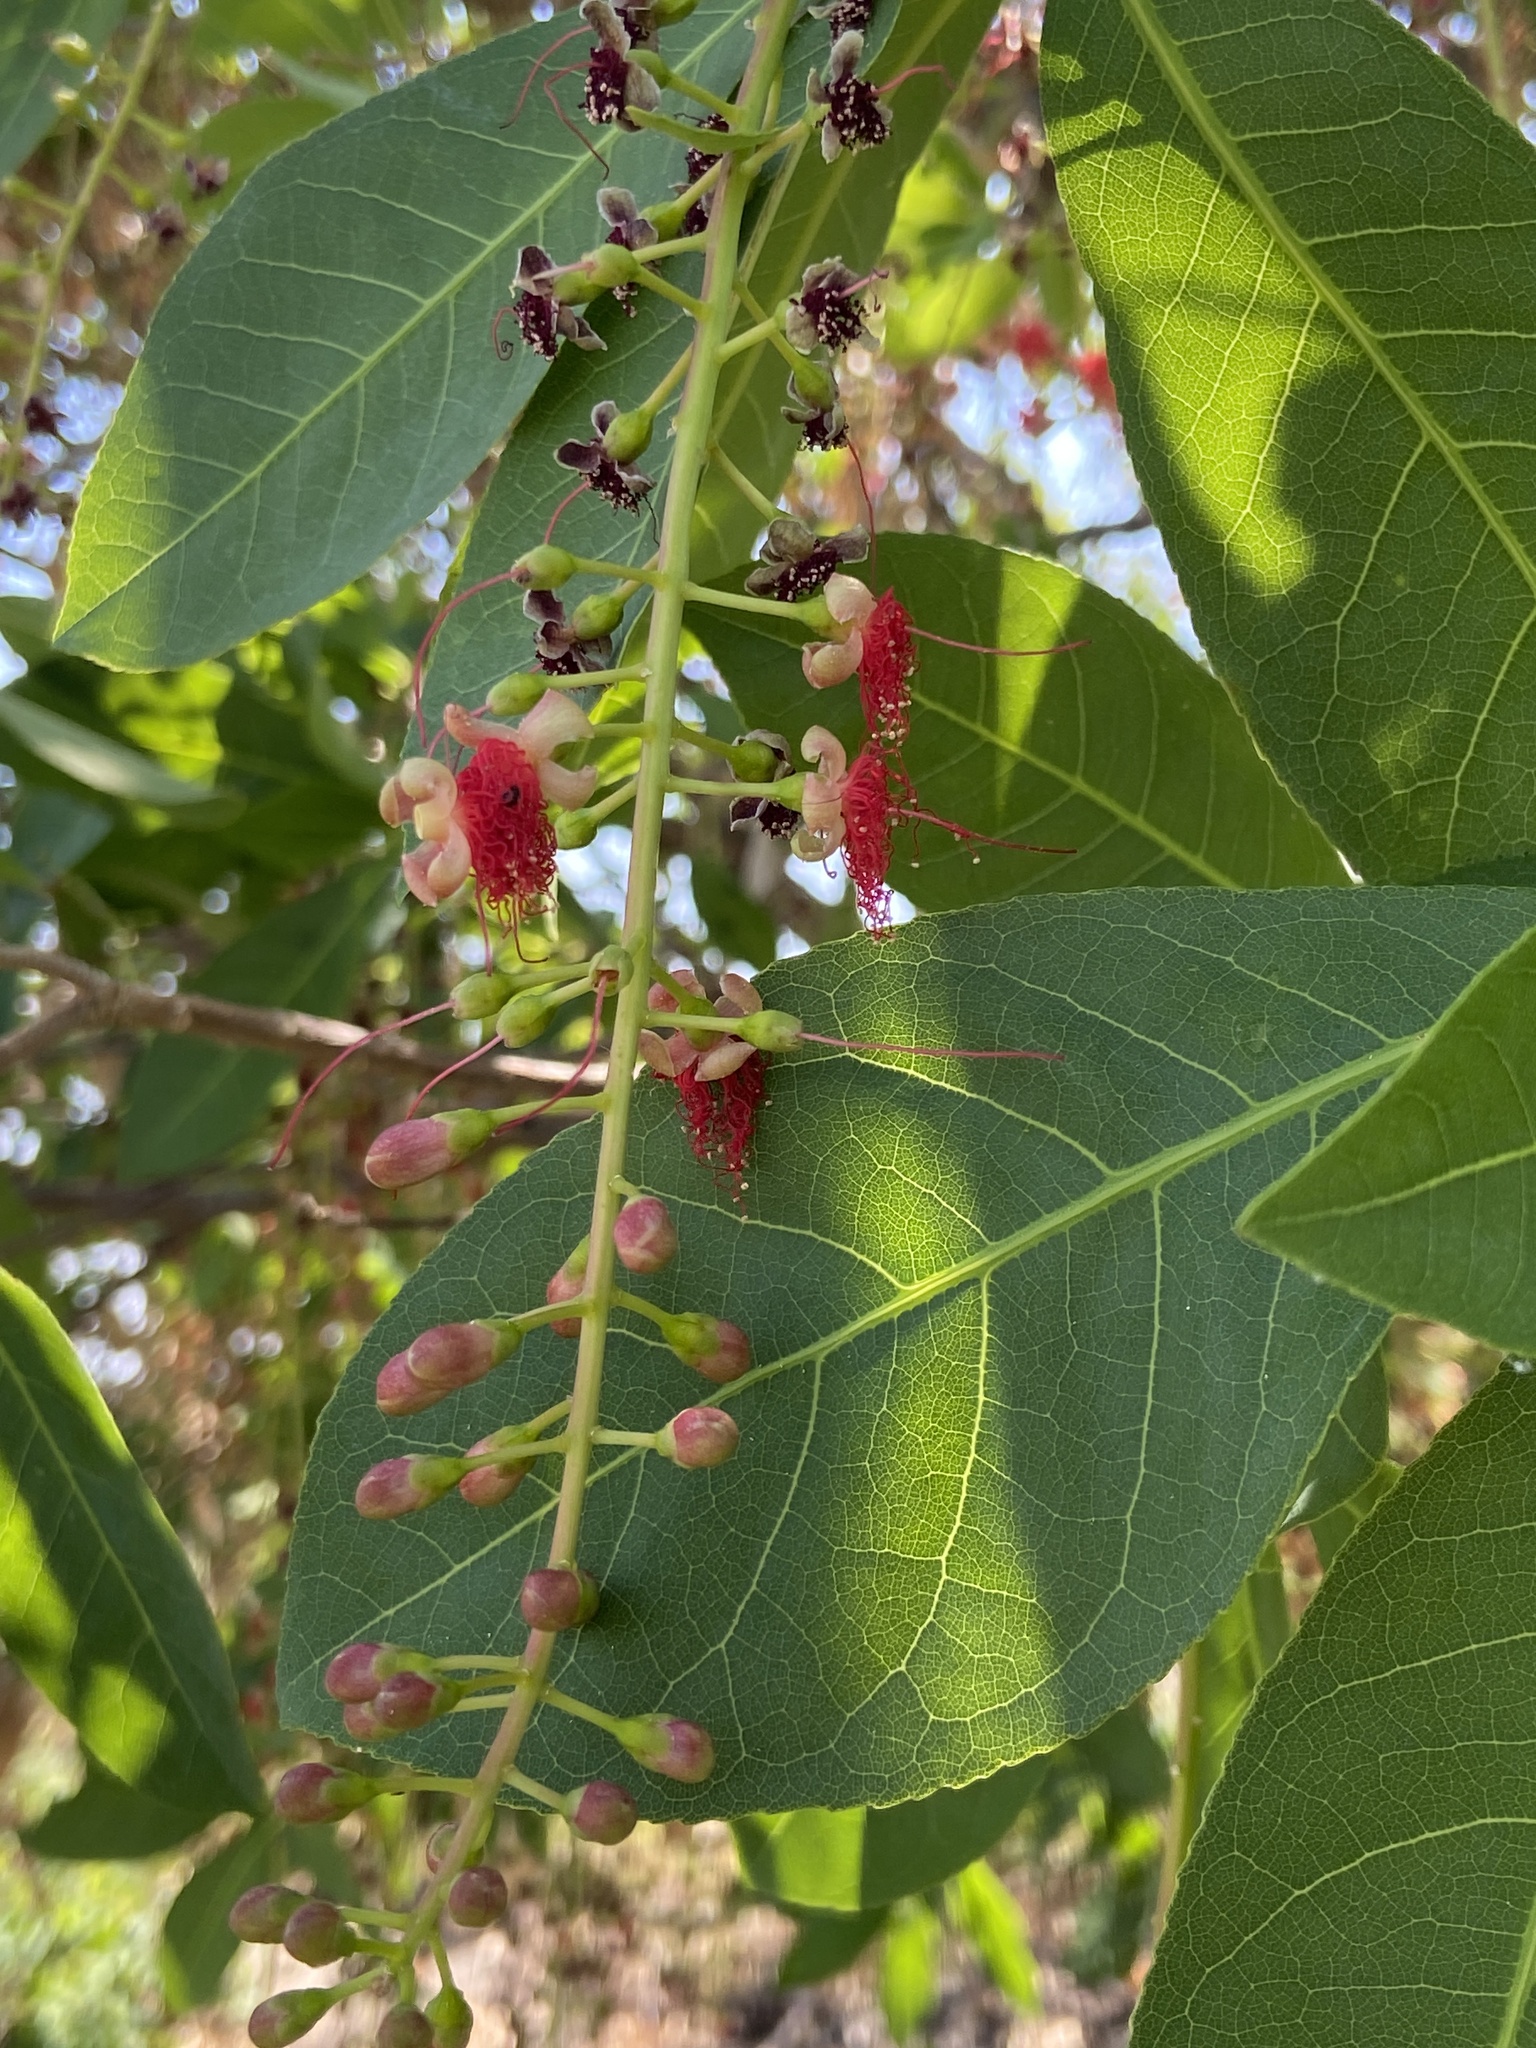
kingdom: Plantae
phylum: Tracheophyta
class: Magnoliopsida
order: Ericales
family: Lecythidaceae
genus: Barringtonia
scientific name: Barringtonia acutangula
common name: Freshwater mangrove
